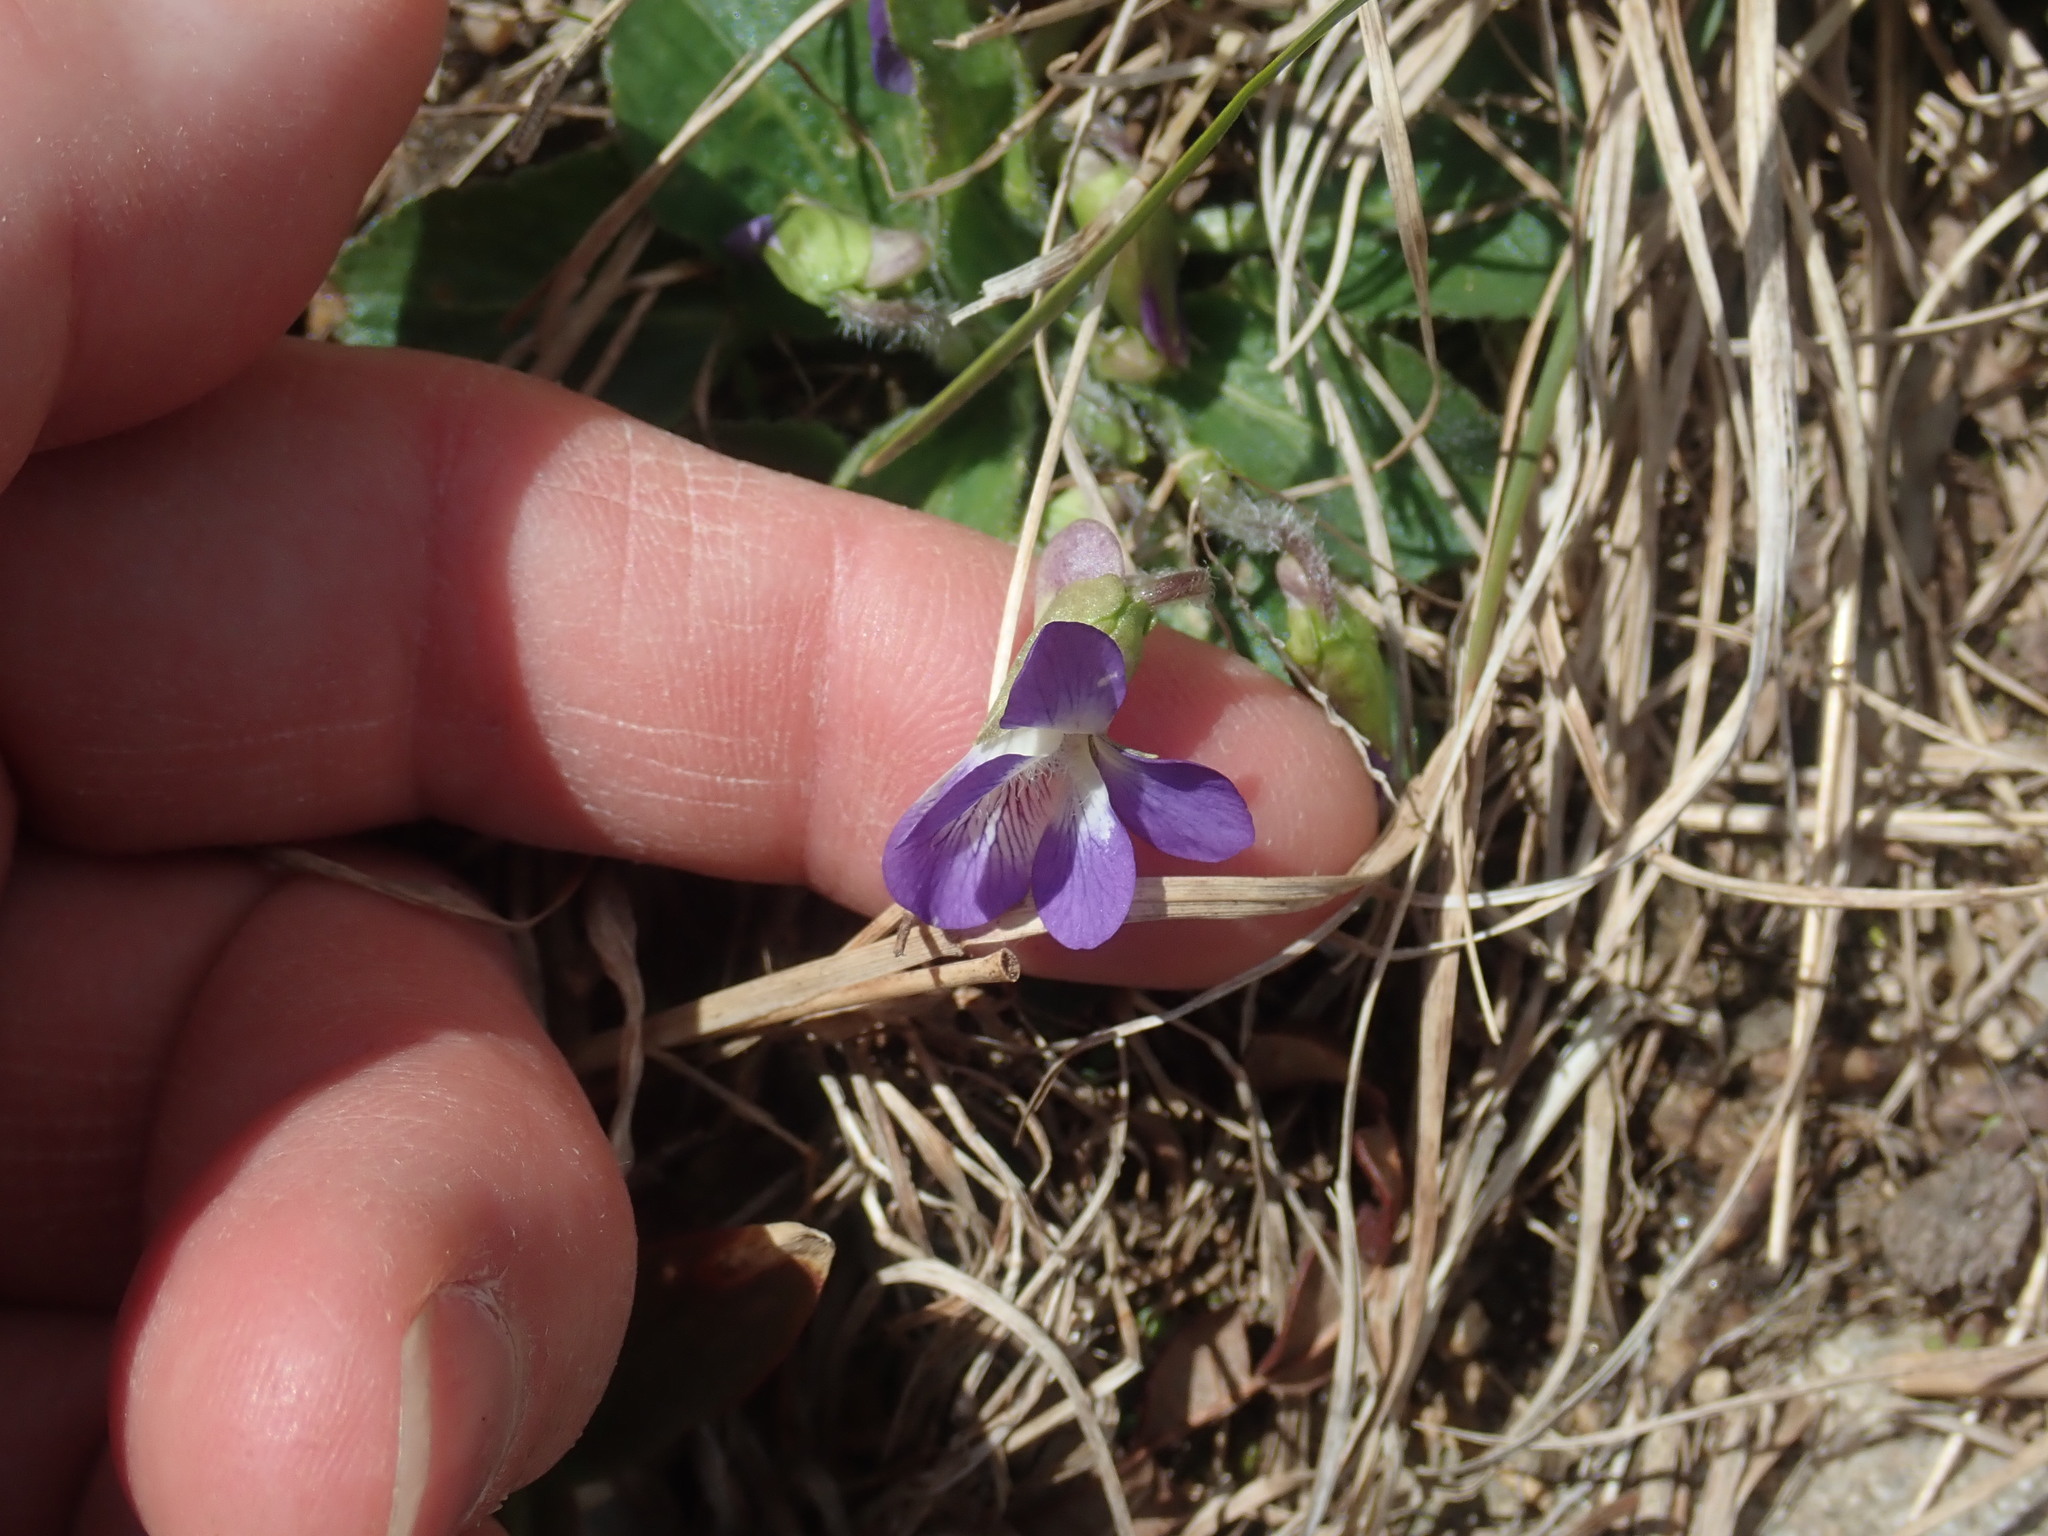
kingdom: Plantae
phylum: Tracheophyta
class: Magnoliopsida
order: Malpighiales
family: Violaceae
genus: Viola
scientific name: Viola sagittata
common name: Arrowhead violet
